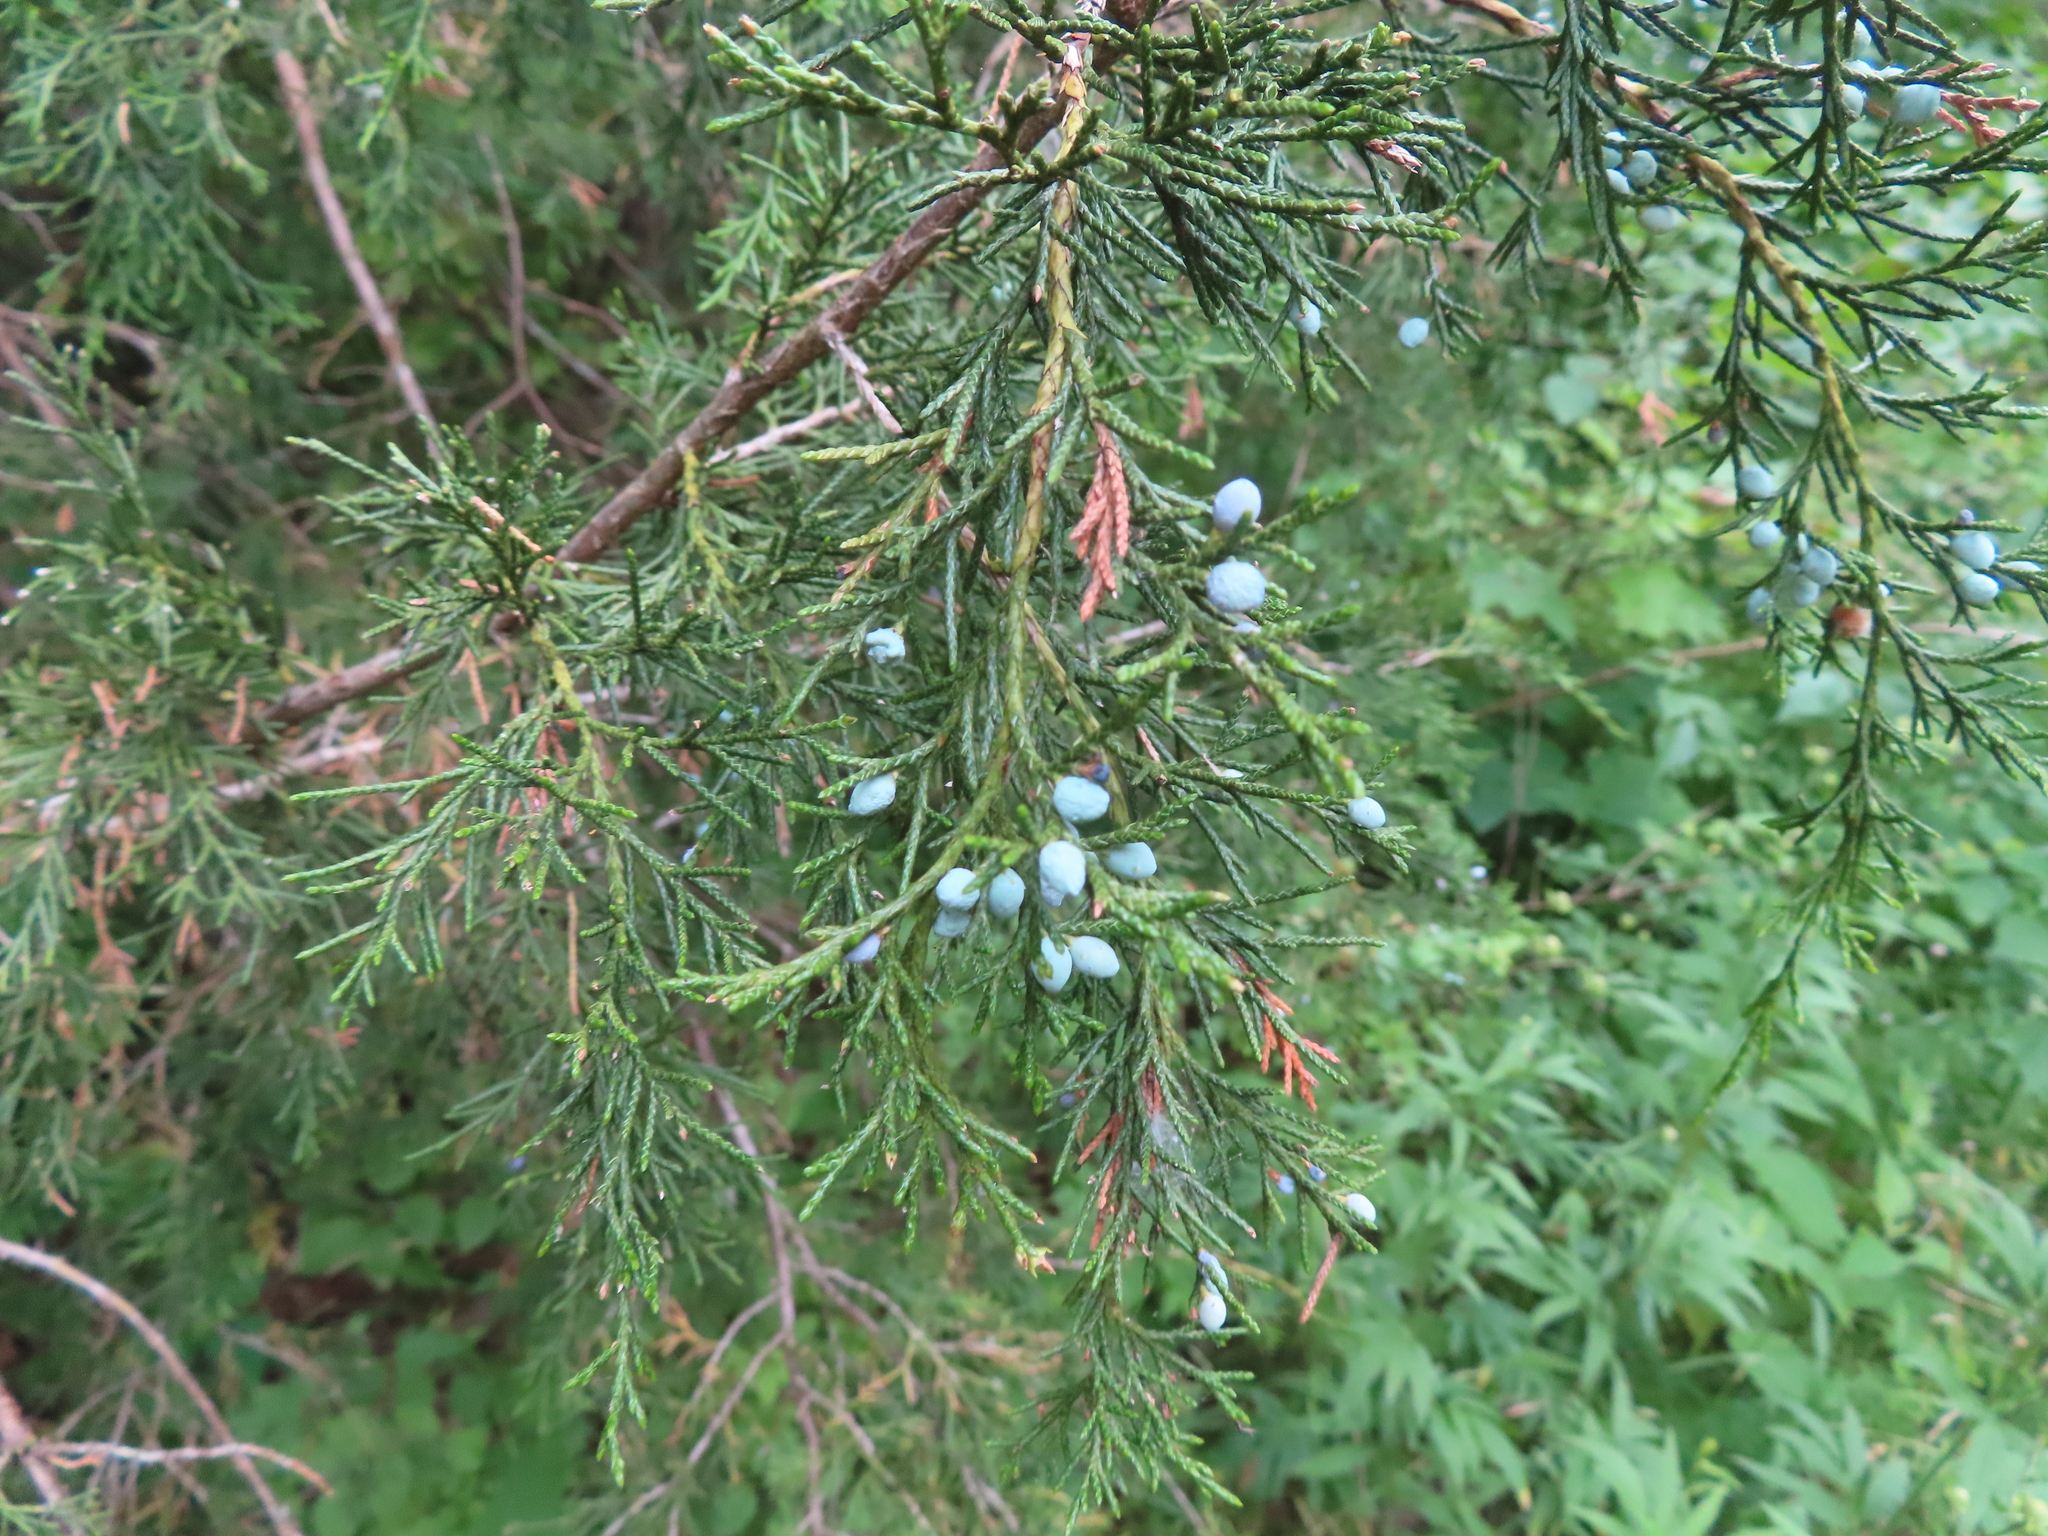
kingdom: Plantae
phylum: Tracheophyta
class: Pinopsida
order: Pinales
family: Cupressaceae
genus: Juniperus
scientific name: Juniperus virginiana
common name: Red juniper
